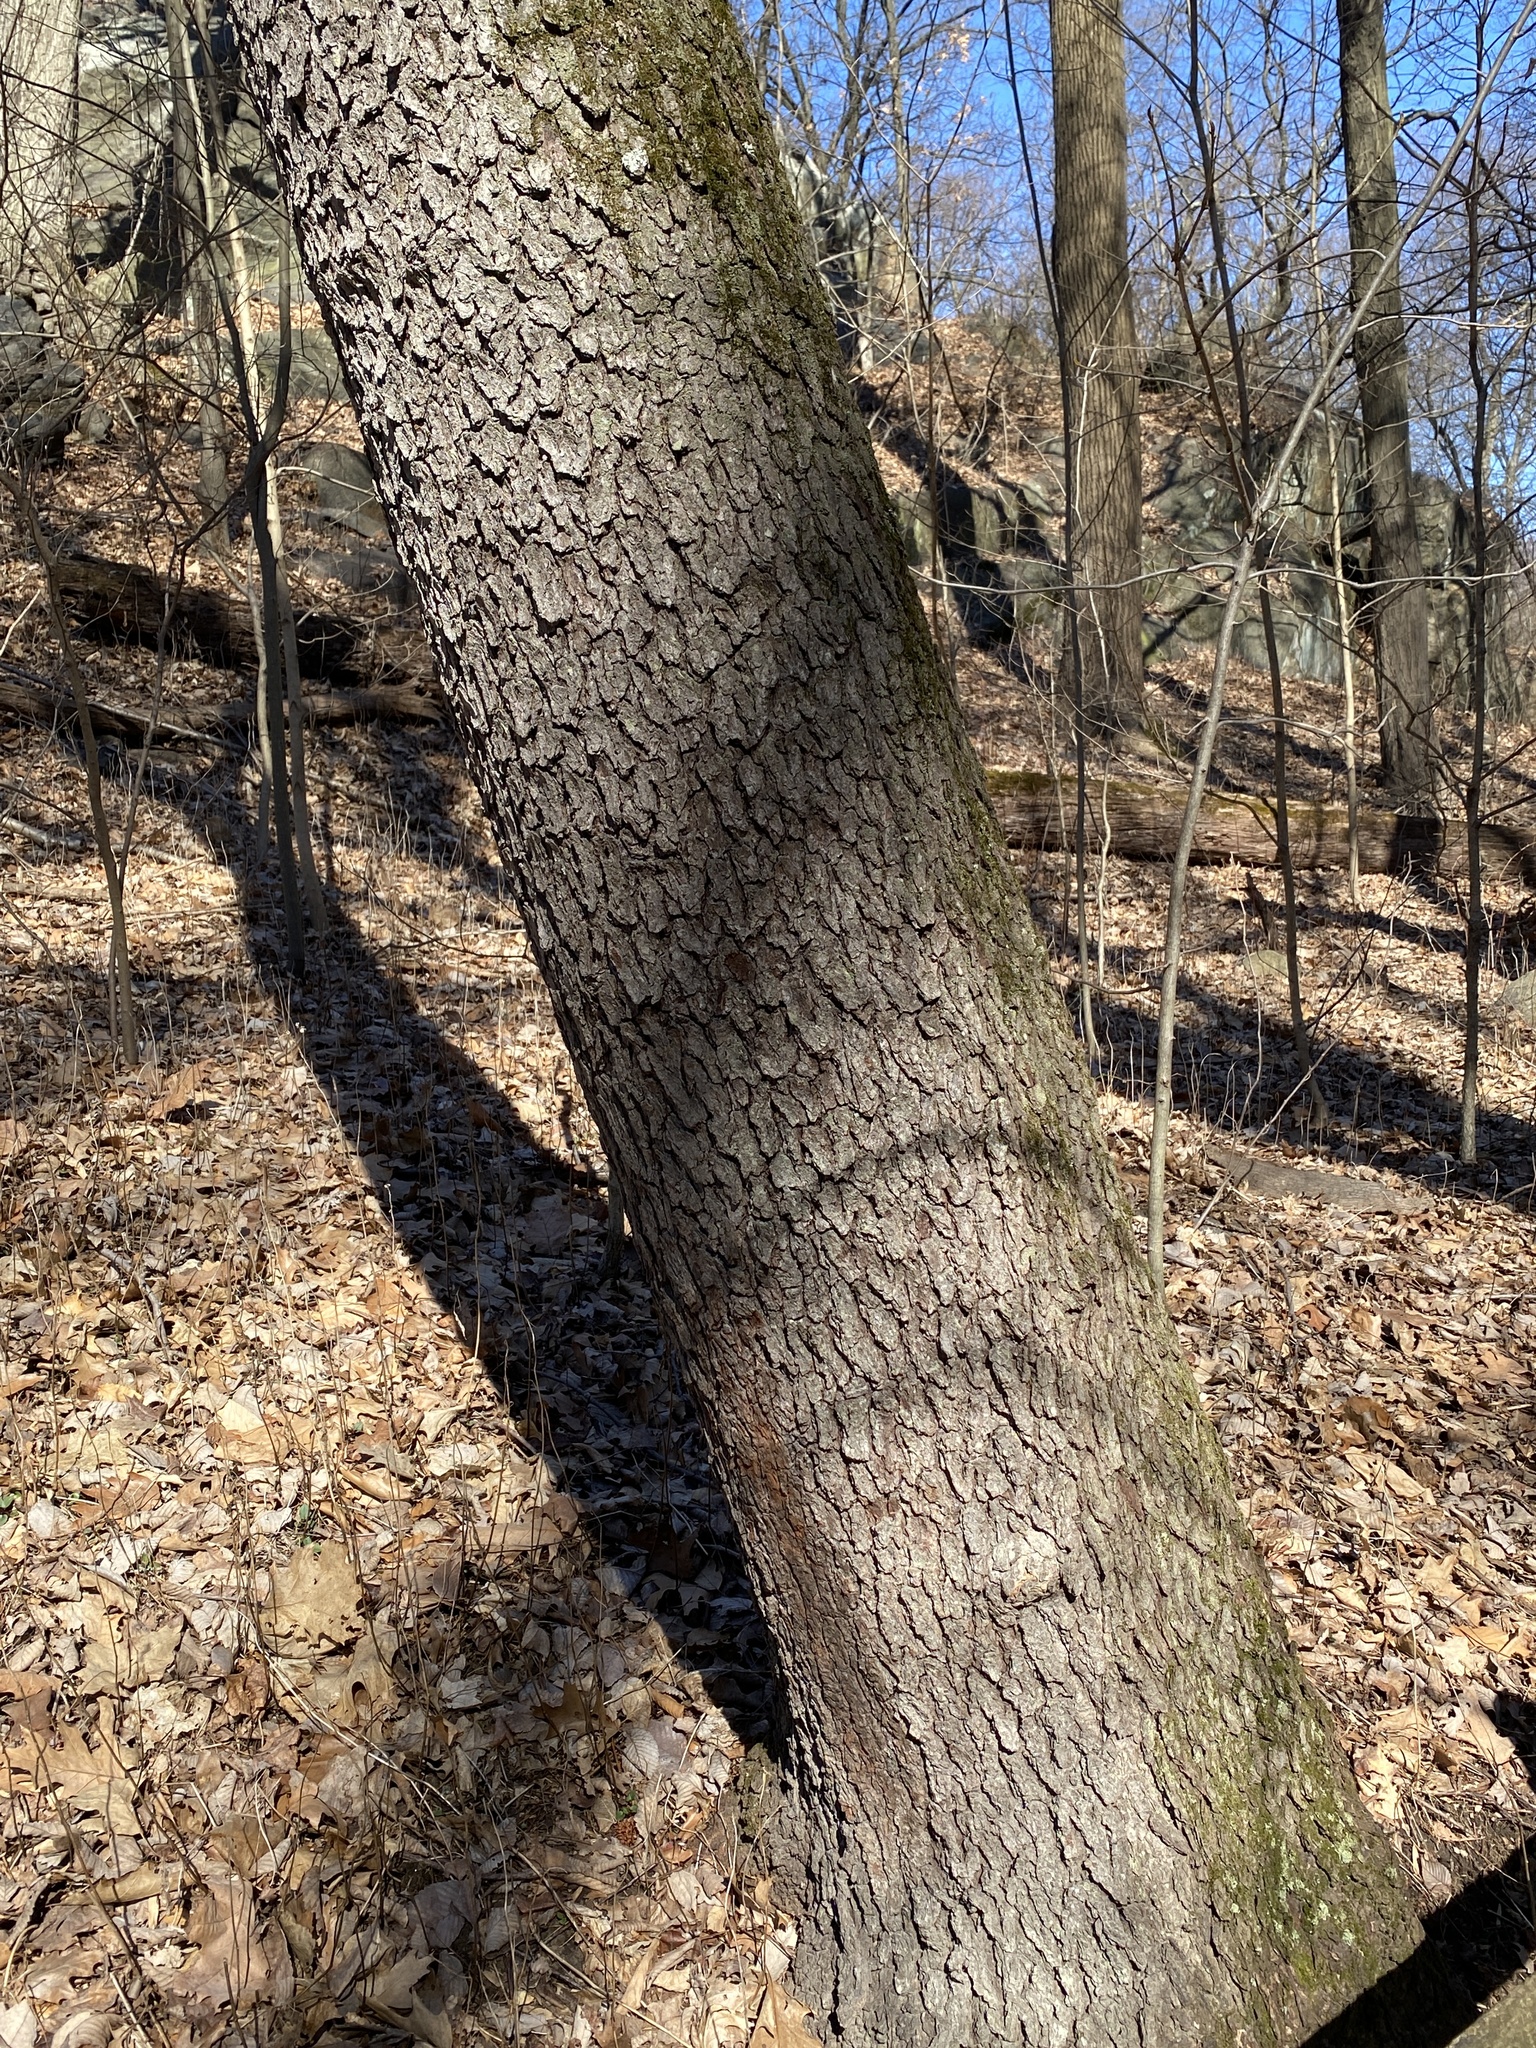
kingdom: Plantae
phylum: Tracheophyta
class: Magnoliopsida
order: Rosales
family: Rosaceae
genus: Prunus
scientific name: Prunus serotina
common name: Black cherry
